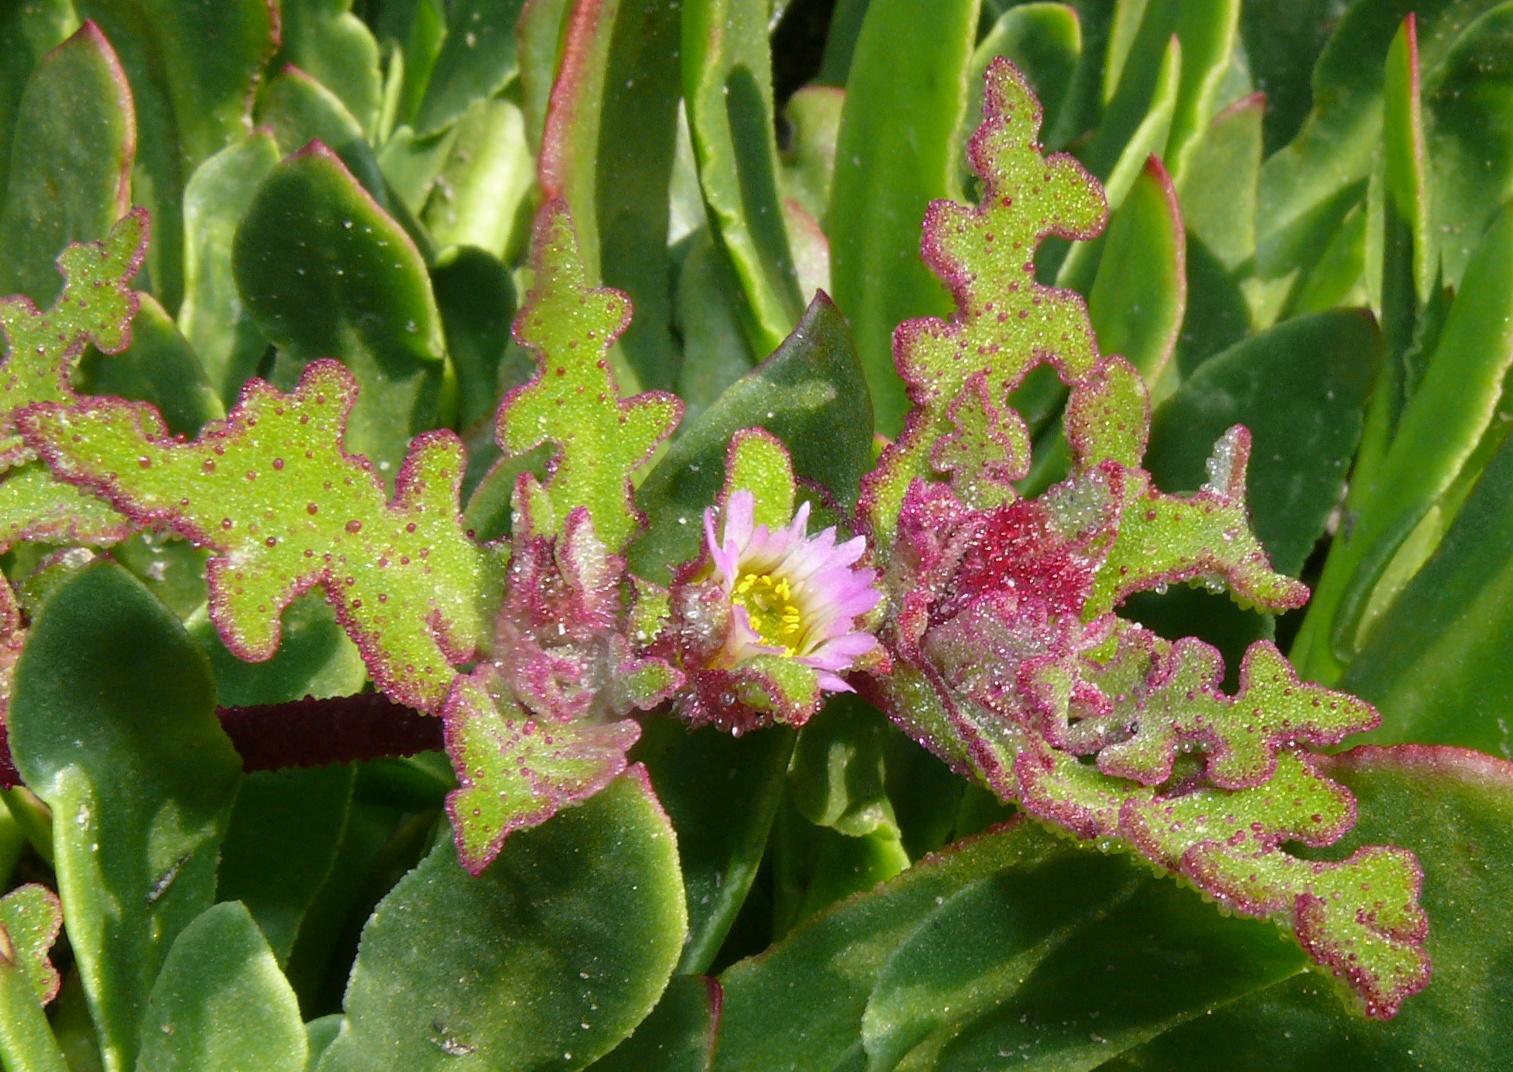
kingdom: Plantae
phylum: Tracheophyta
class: Magnoliopsida
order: Caryophyllales
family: Aizoaceae
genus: Cleretum
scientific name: Cleretum herrei
